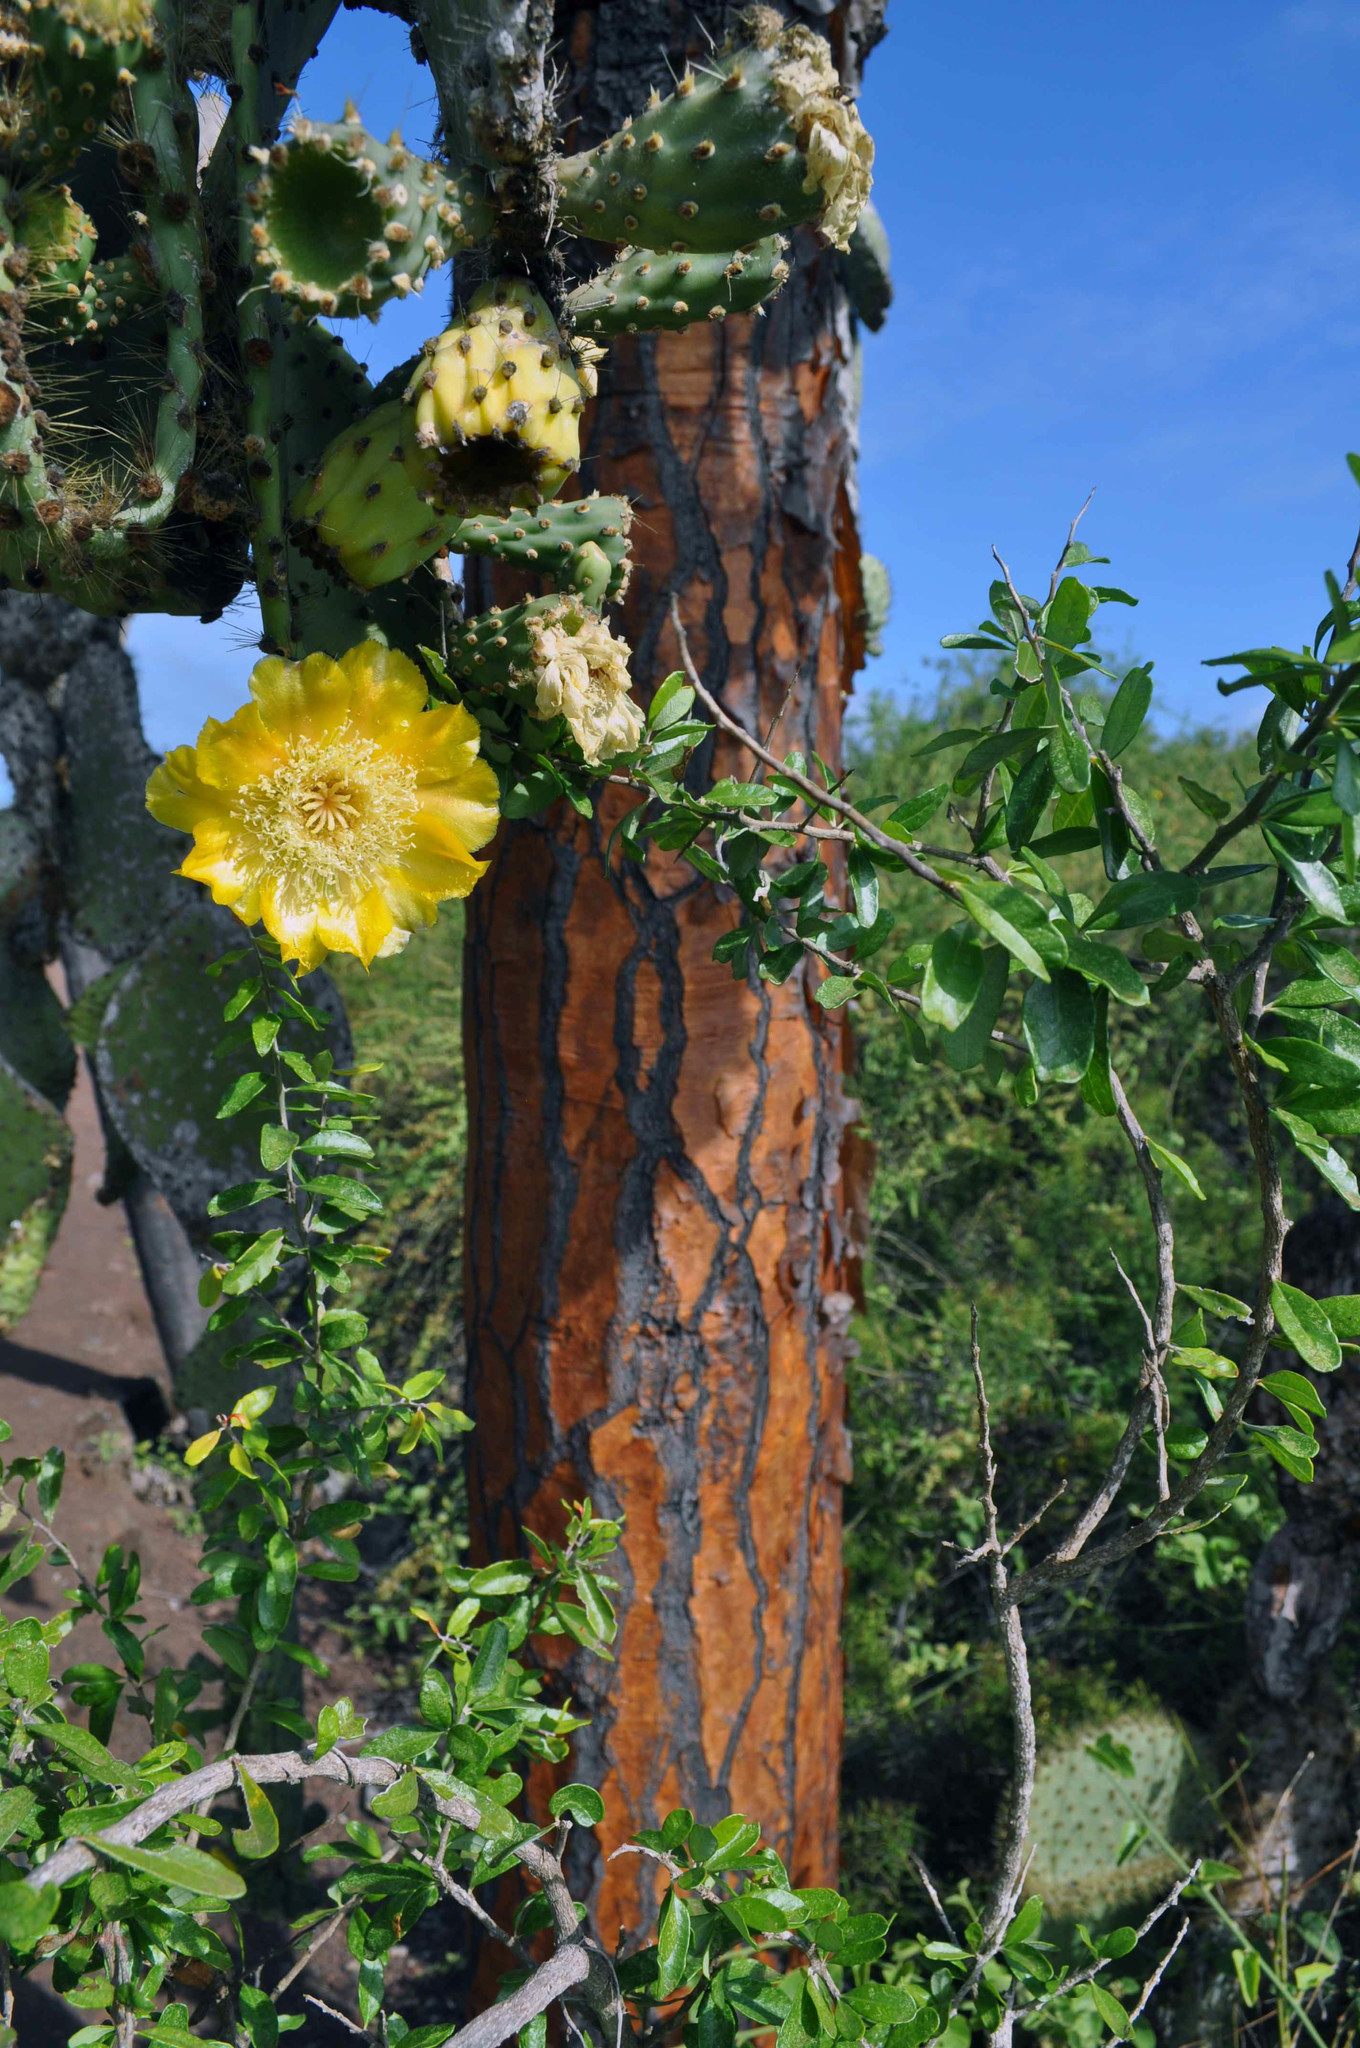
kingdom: Plantae
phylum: Tracheophyta
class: Magnoliopsida
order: Caryophyllales
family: Cactaceae
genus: Opuntia
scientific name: Opuntia galapageia
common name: Galápagos prickly pear
